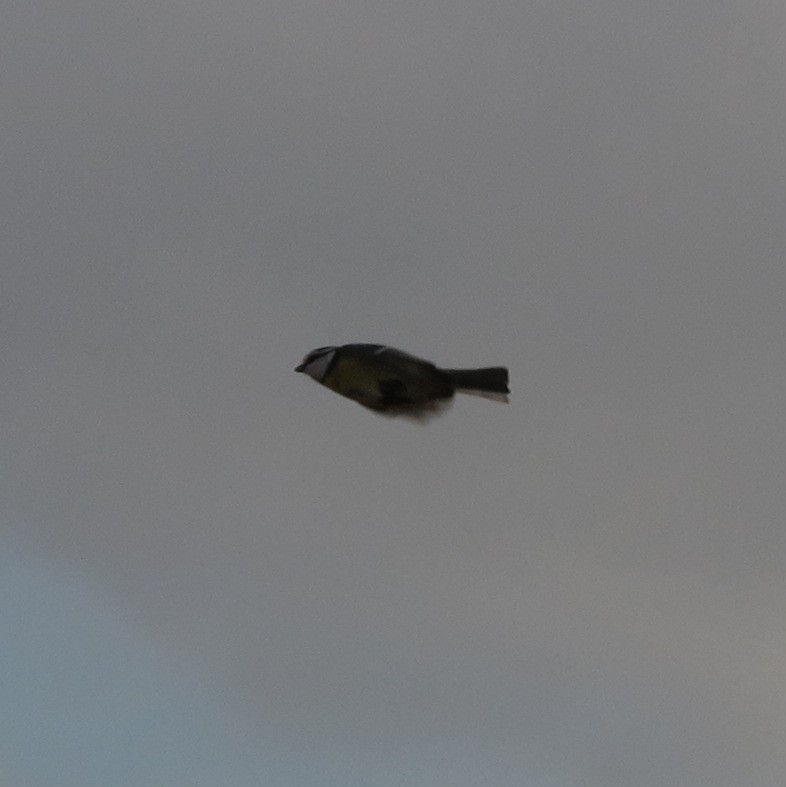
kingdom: Animalia
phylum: Chordata
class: Aves
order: Passeriformes
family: Paridae
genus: Cyanistes
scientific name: Cyanistes caeruleus
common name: Eurasian blue tit
